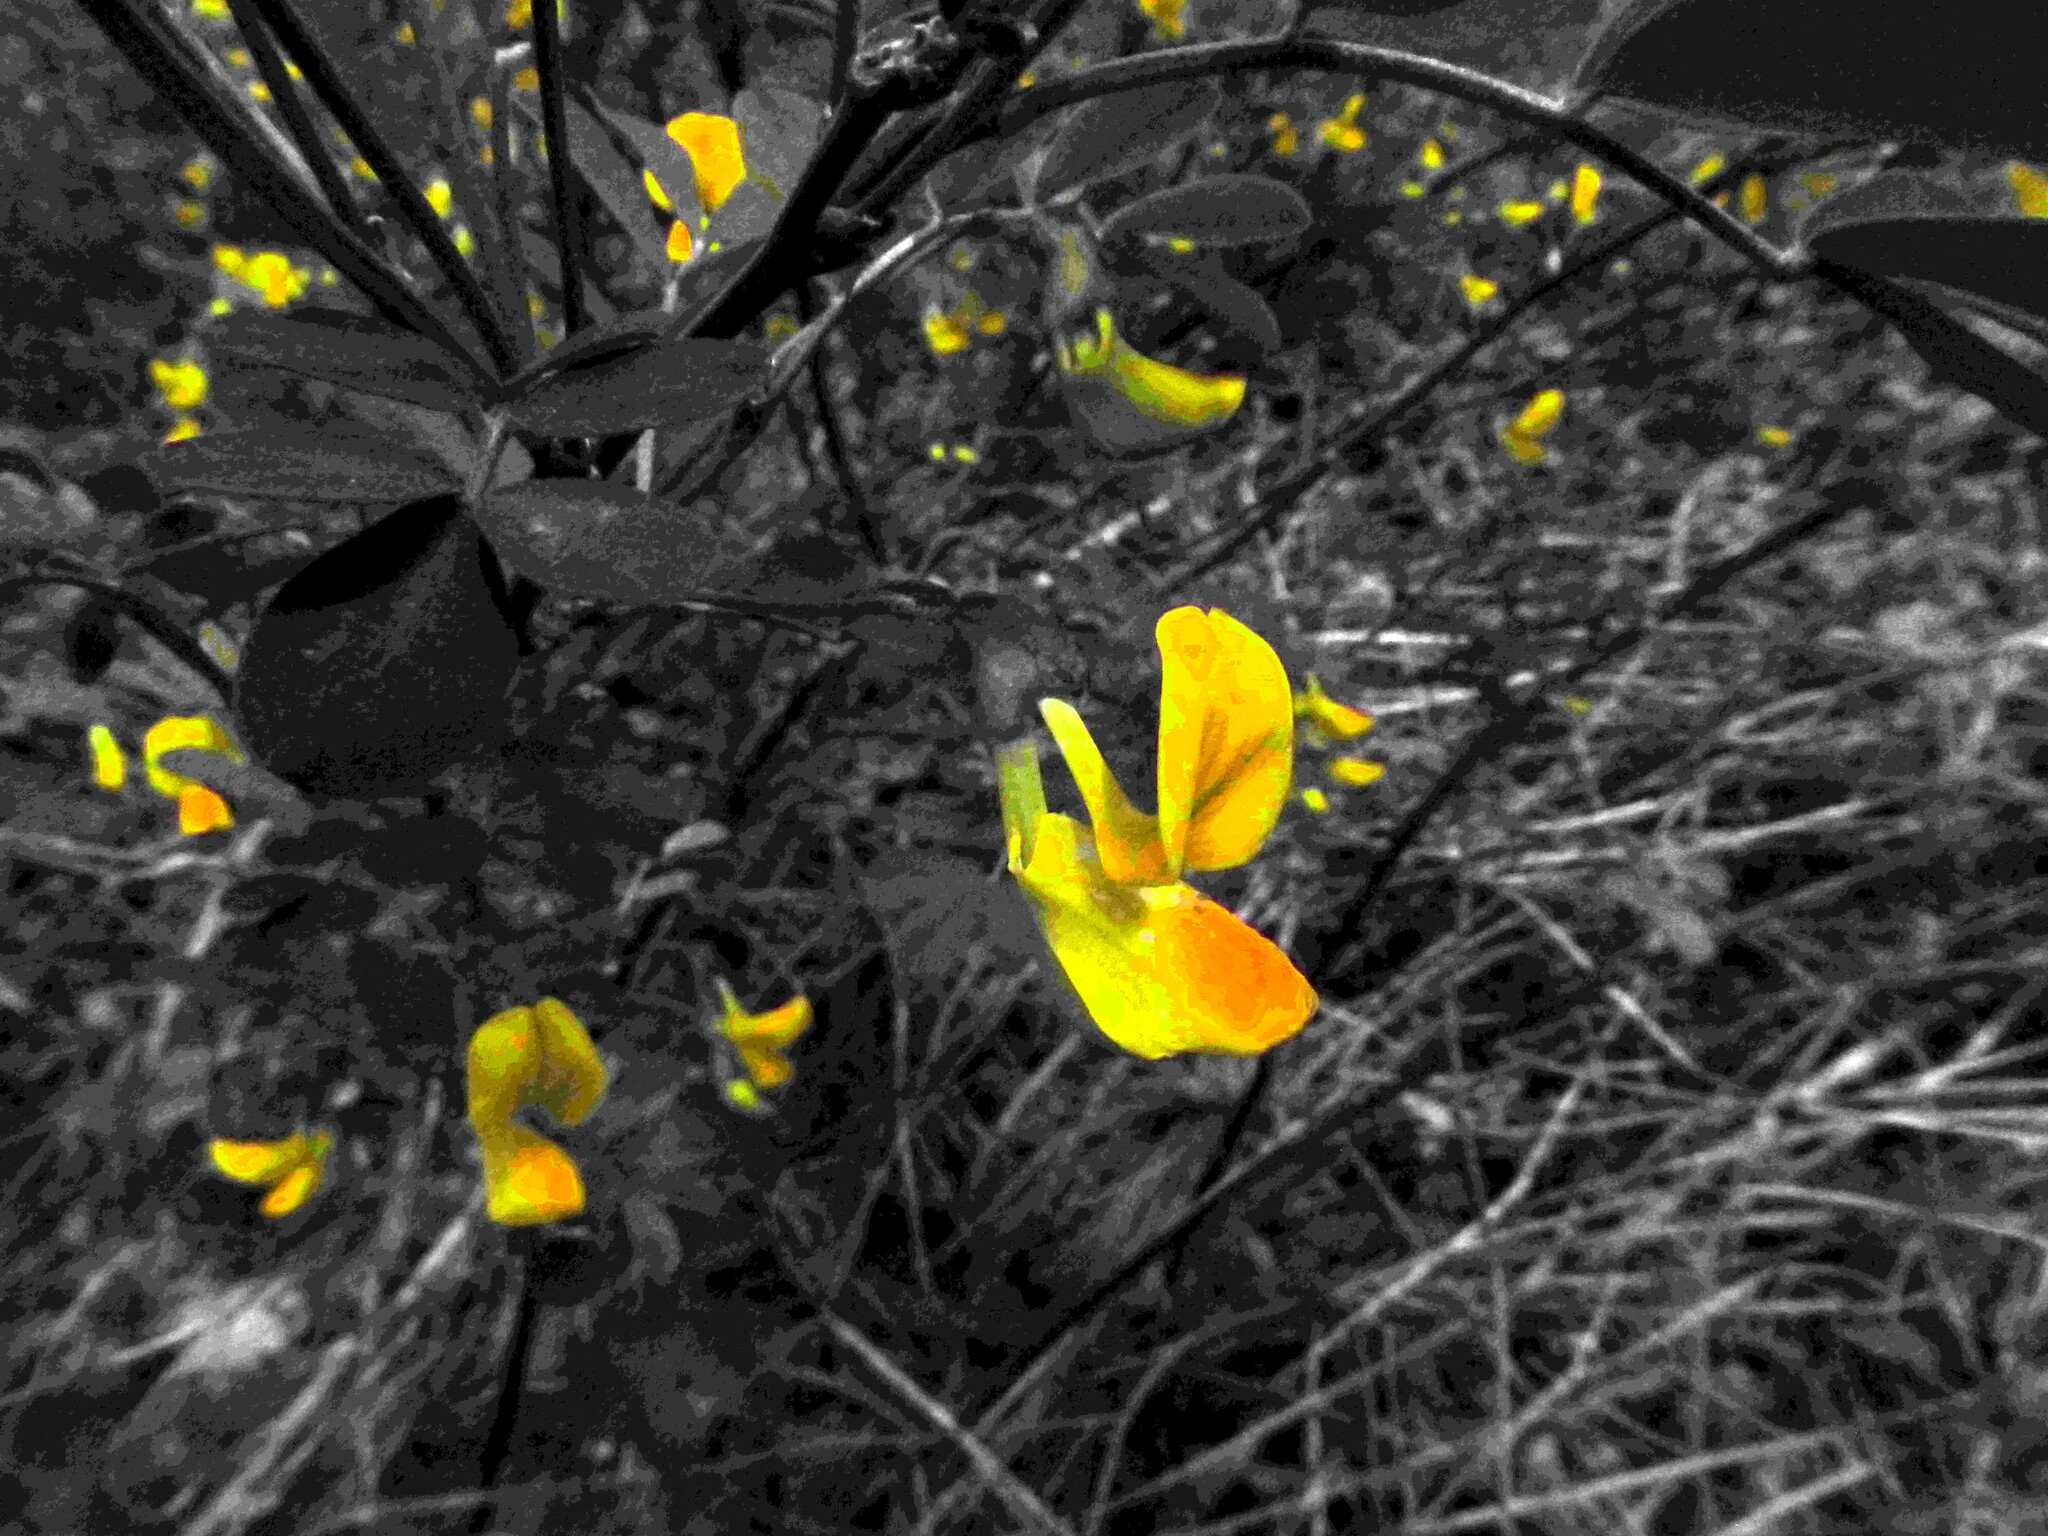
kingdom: Plantae
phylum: Tracheophyta
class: Magnoliopsida
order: Fabales
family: Fabaceae
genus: Hippocrepis
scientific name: Hippocrepis emerus
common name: Scorpion senna
